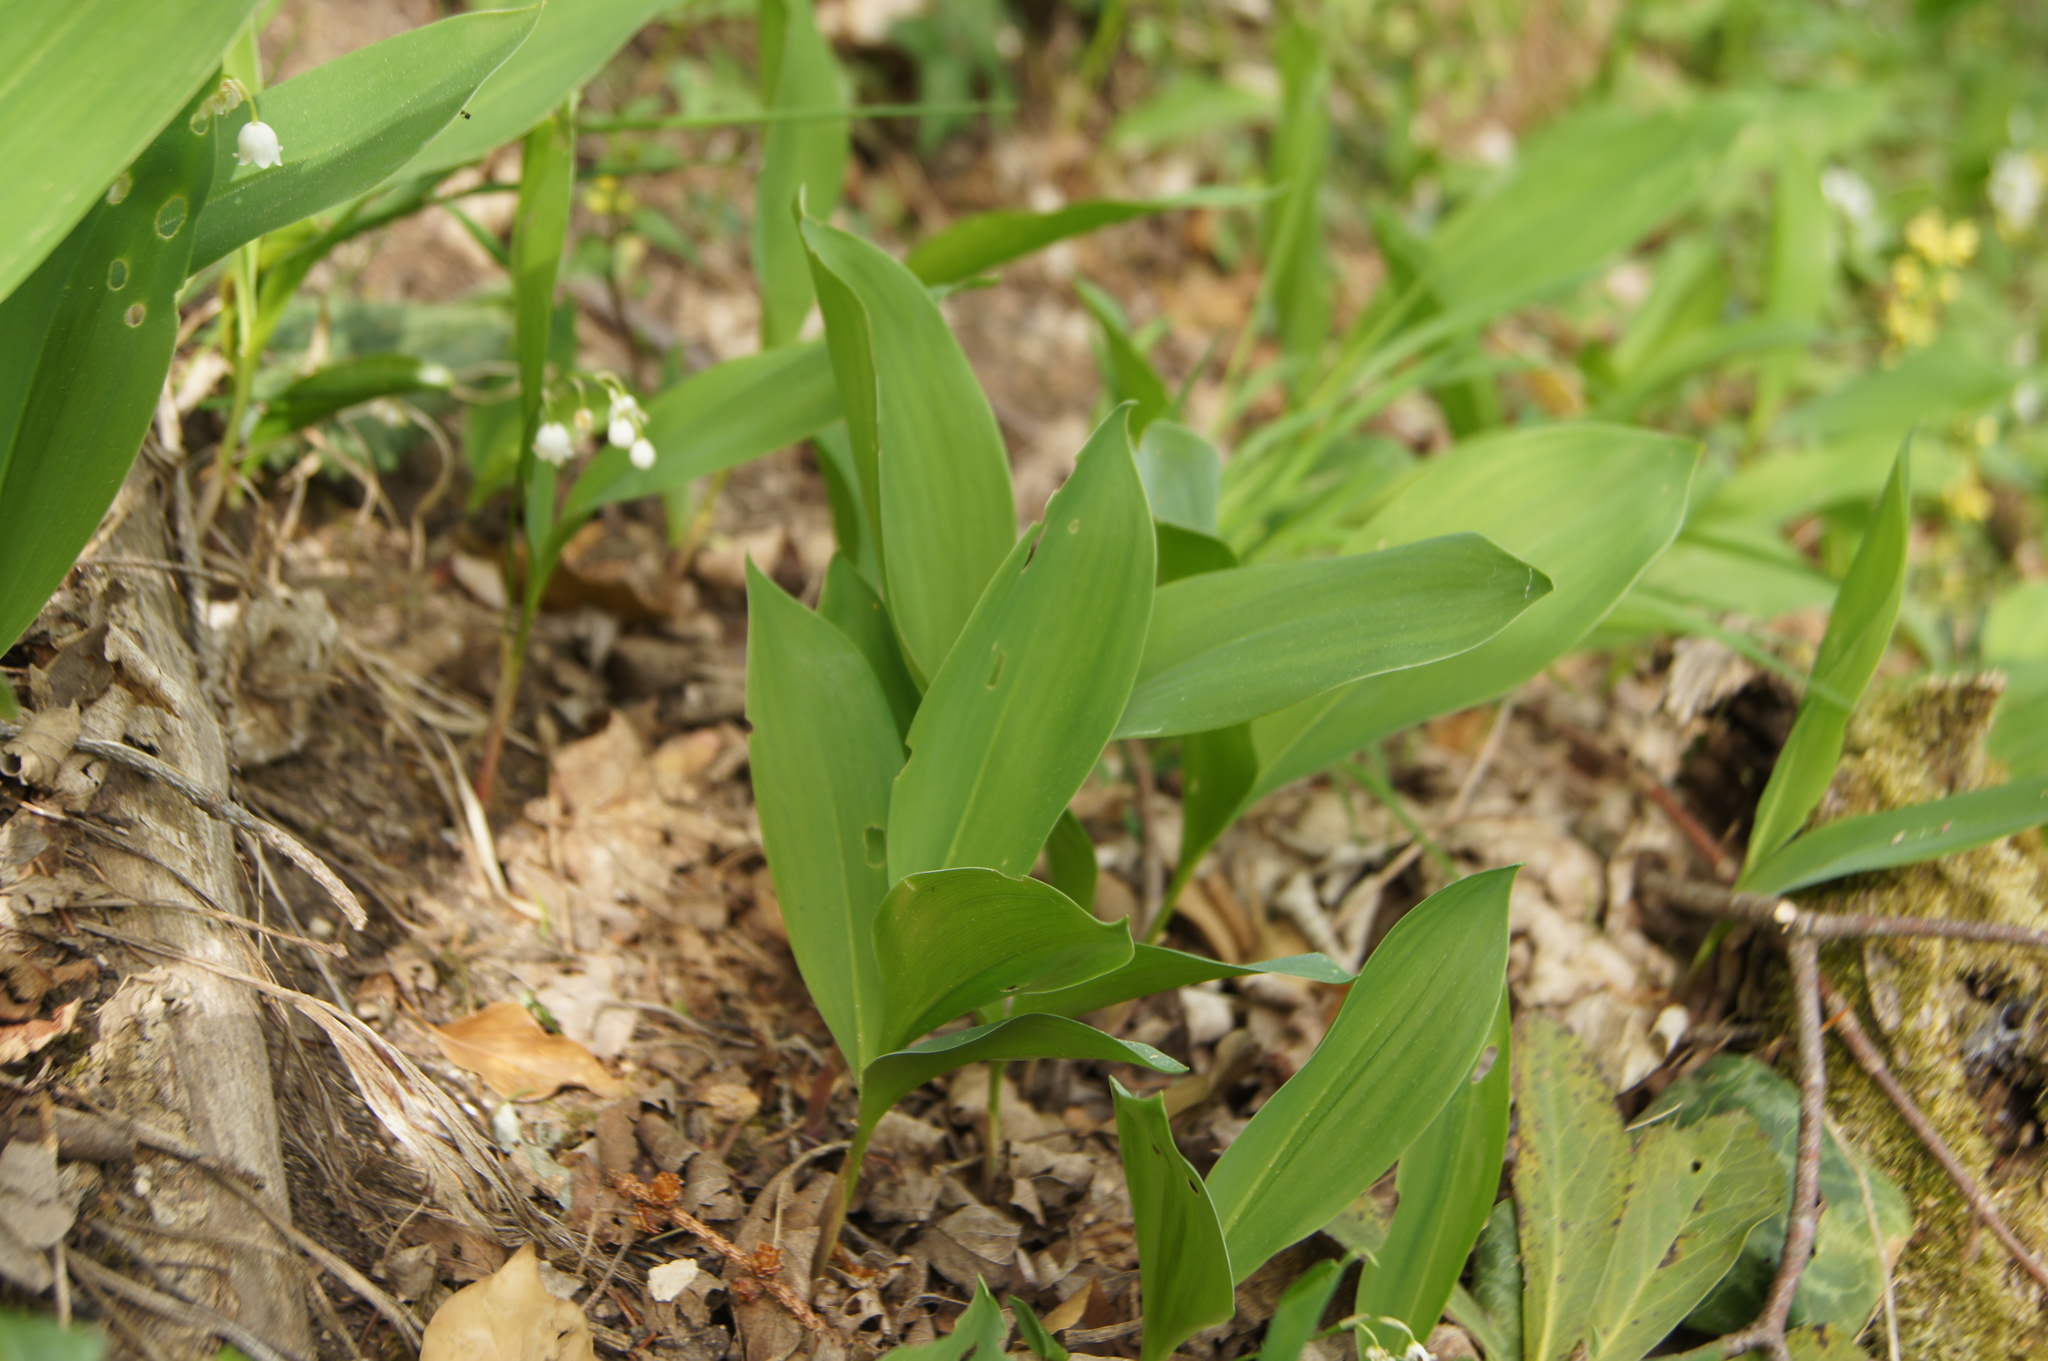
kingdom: Plantae
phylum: Tracheophyta
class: Liliopsida
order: Asparagales
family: Asparagaceae
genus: Convallaria
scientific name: Convallaria majalis
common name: Lily-of-the-valley
